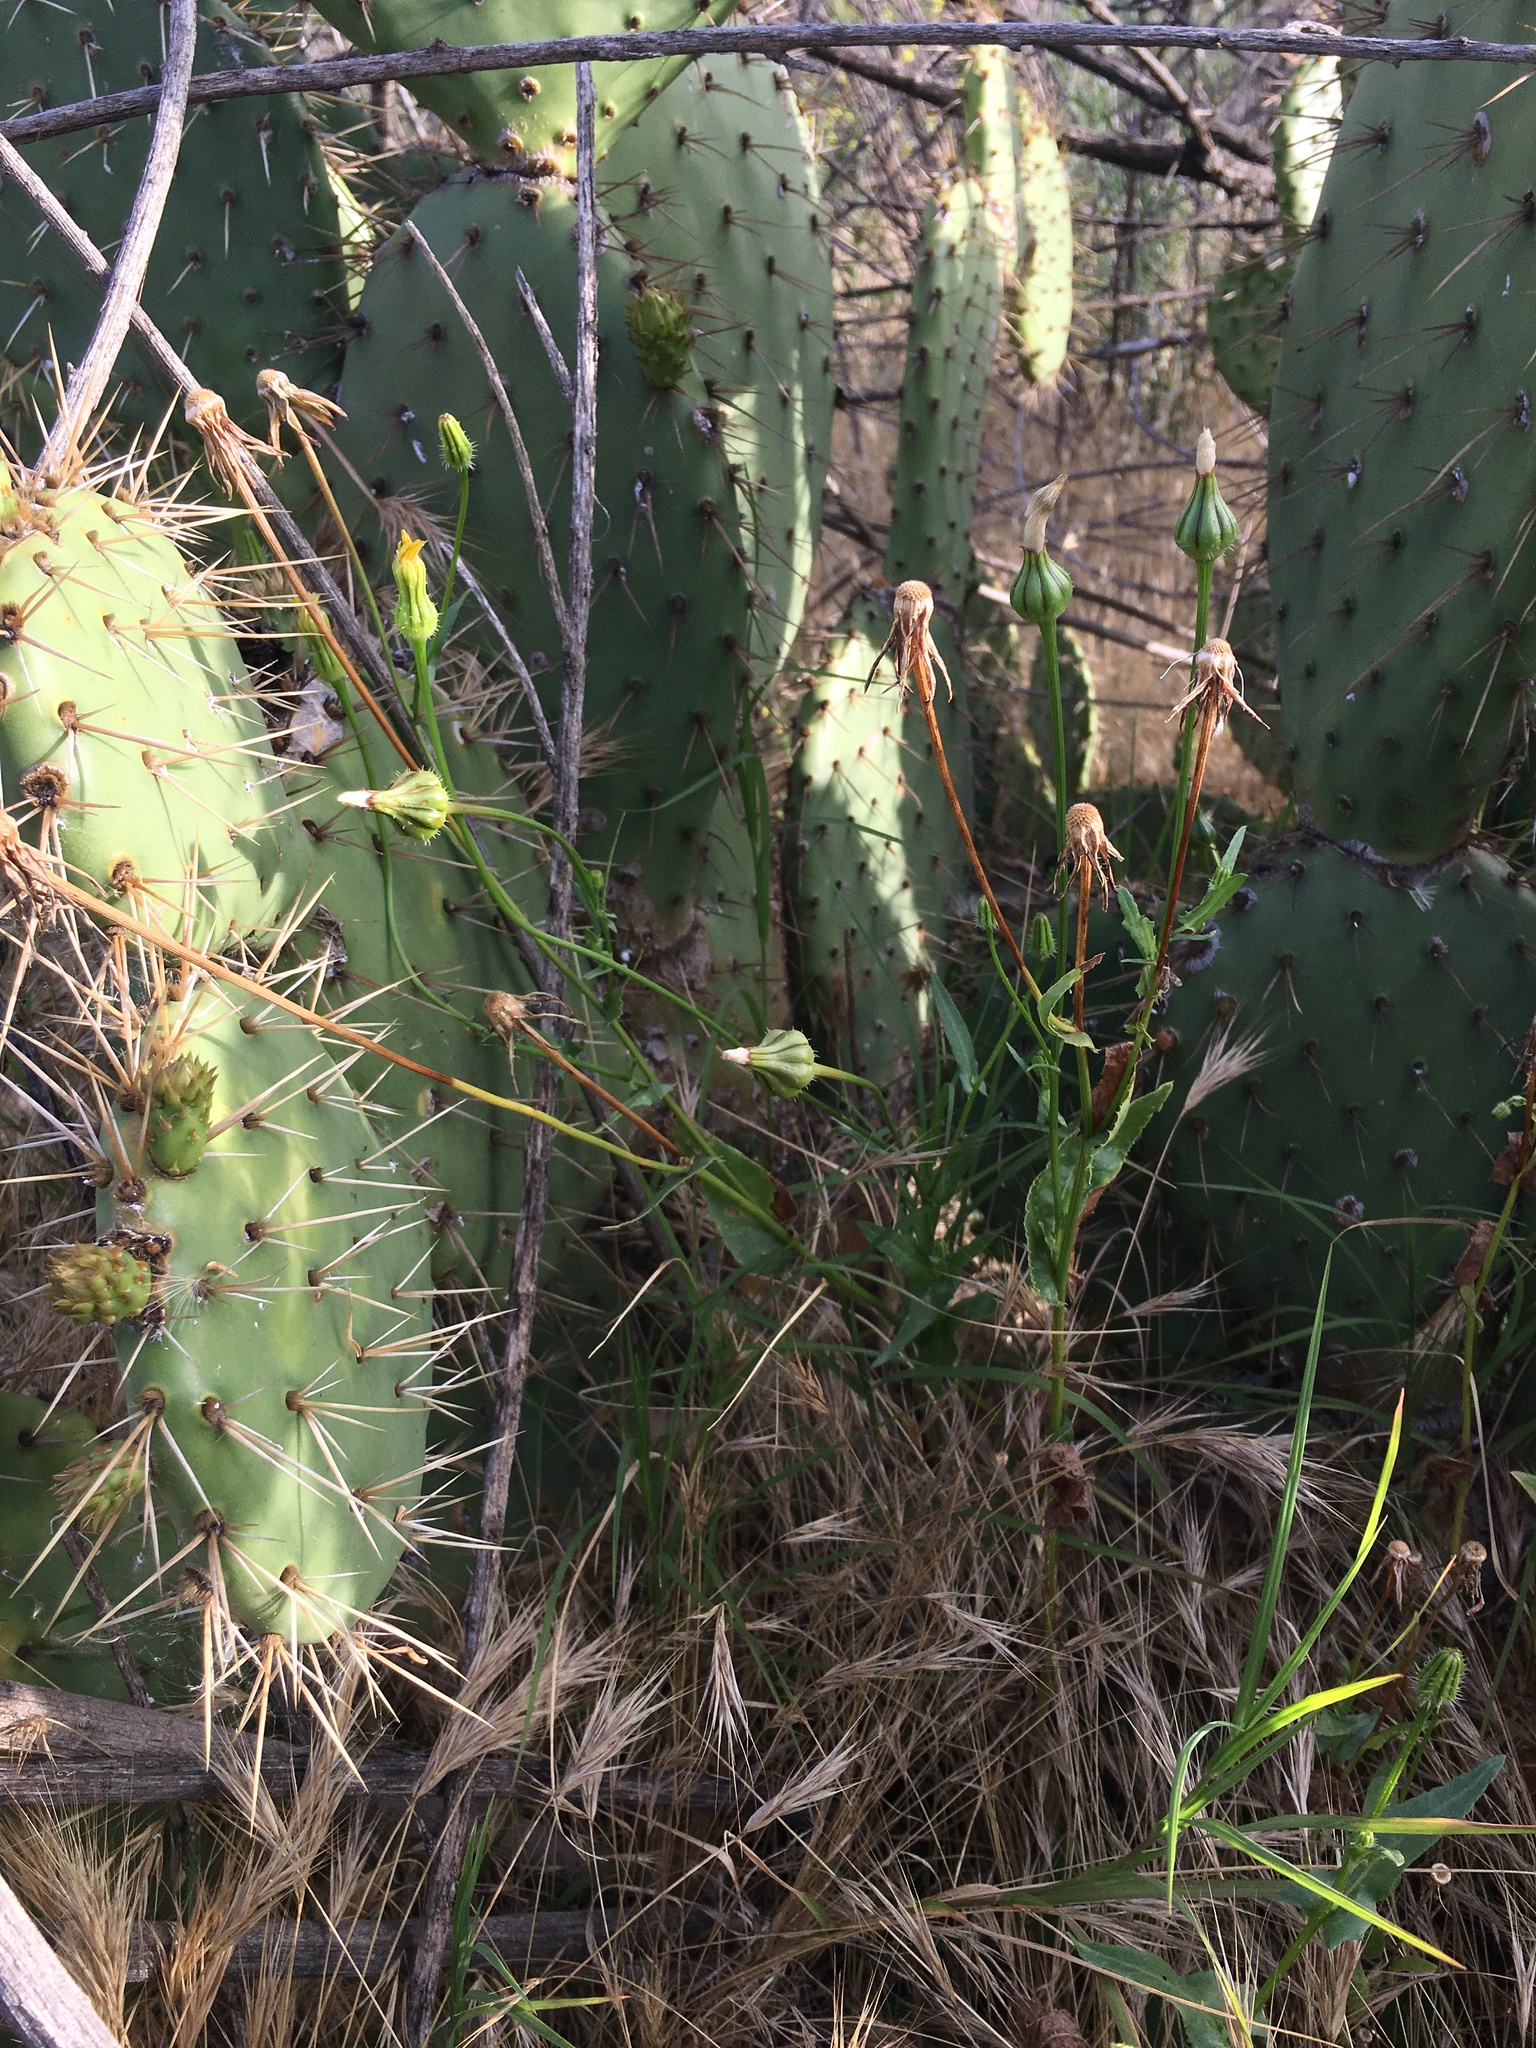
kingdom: Plantae
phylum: Tracheophyta
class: Magnoliopsida
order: Asterales
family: Asteraceae
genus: Urospermum
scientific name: Urospermum picroides
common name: False hawkbit
